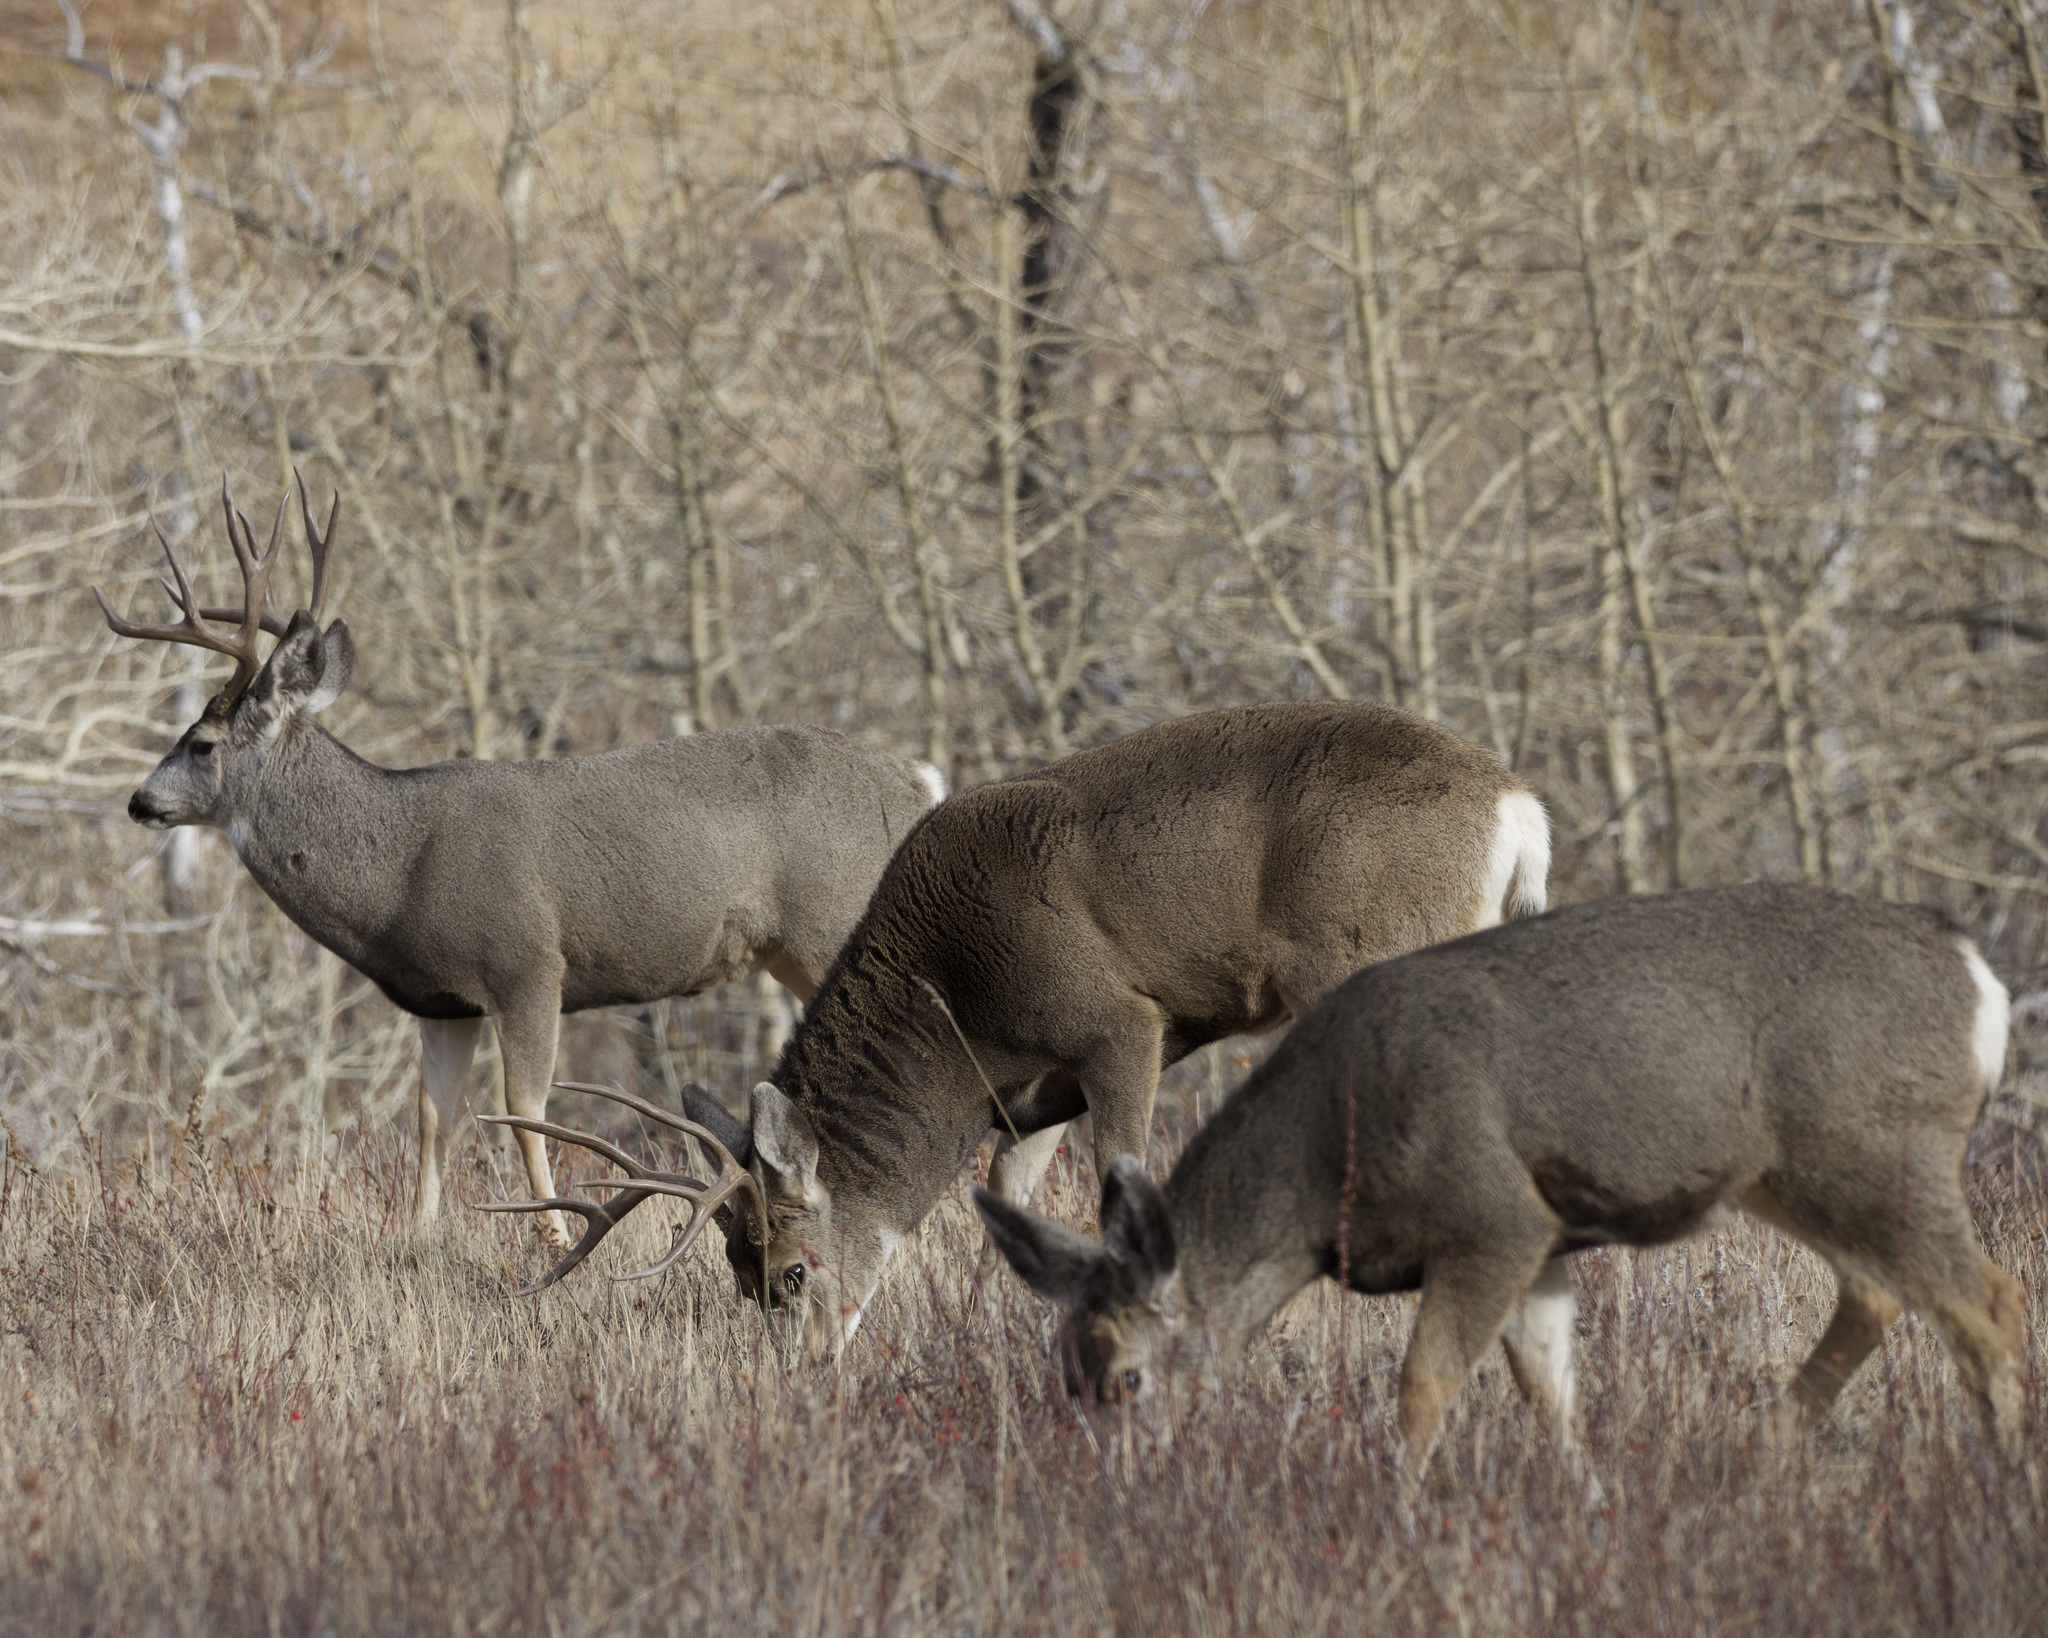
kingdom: Animalia
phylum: Chordata
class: Mammalia
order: Artiodactyla
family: Cervidae
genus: Odocoileus
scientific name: Odocoileus hemionus
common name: Mule deer
